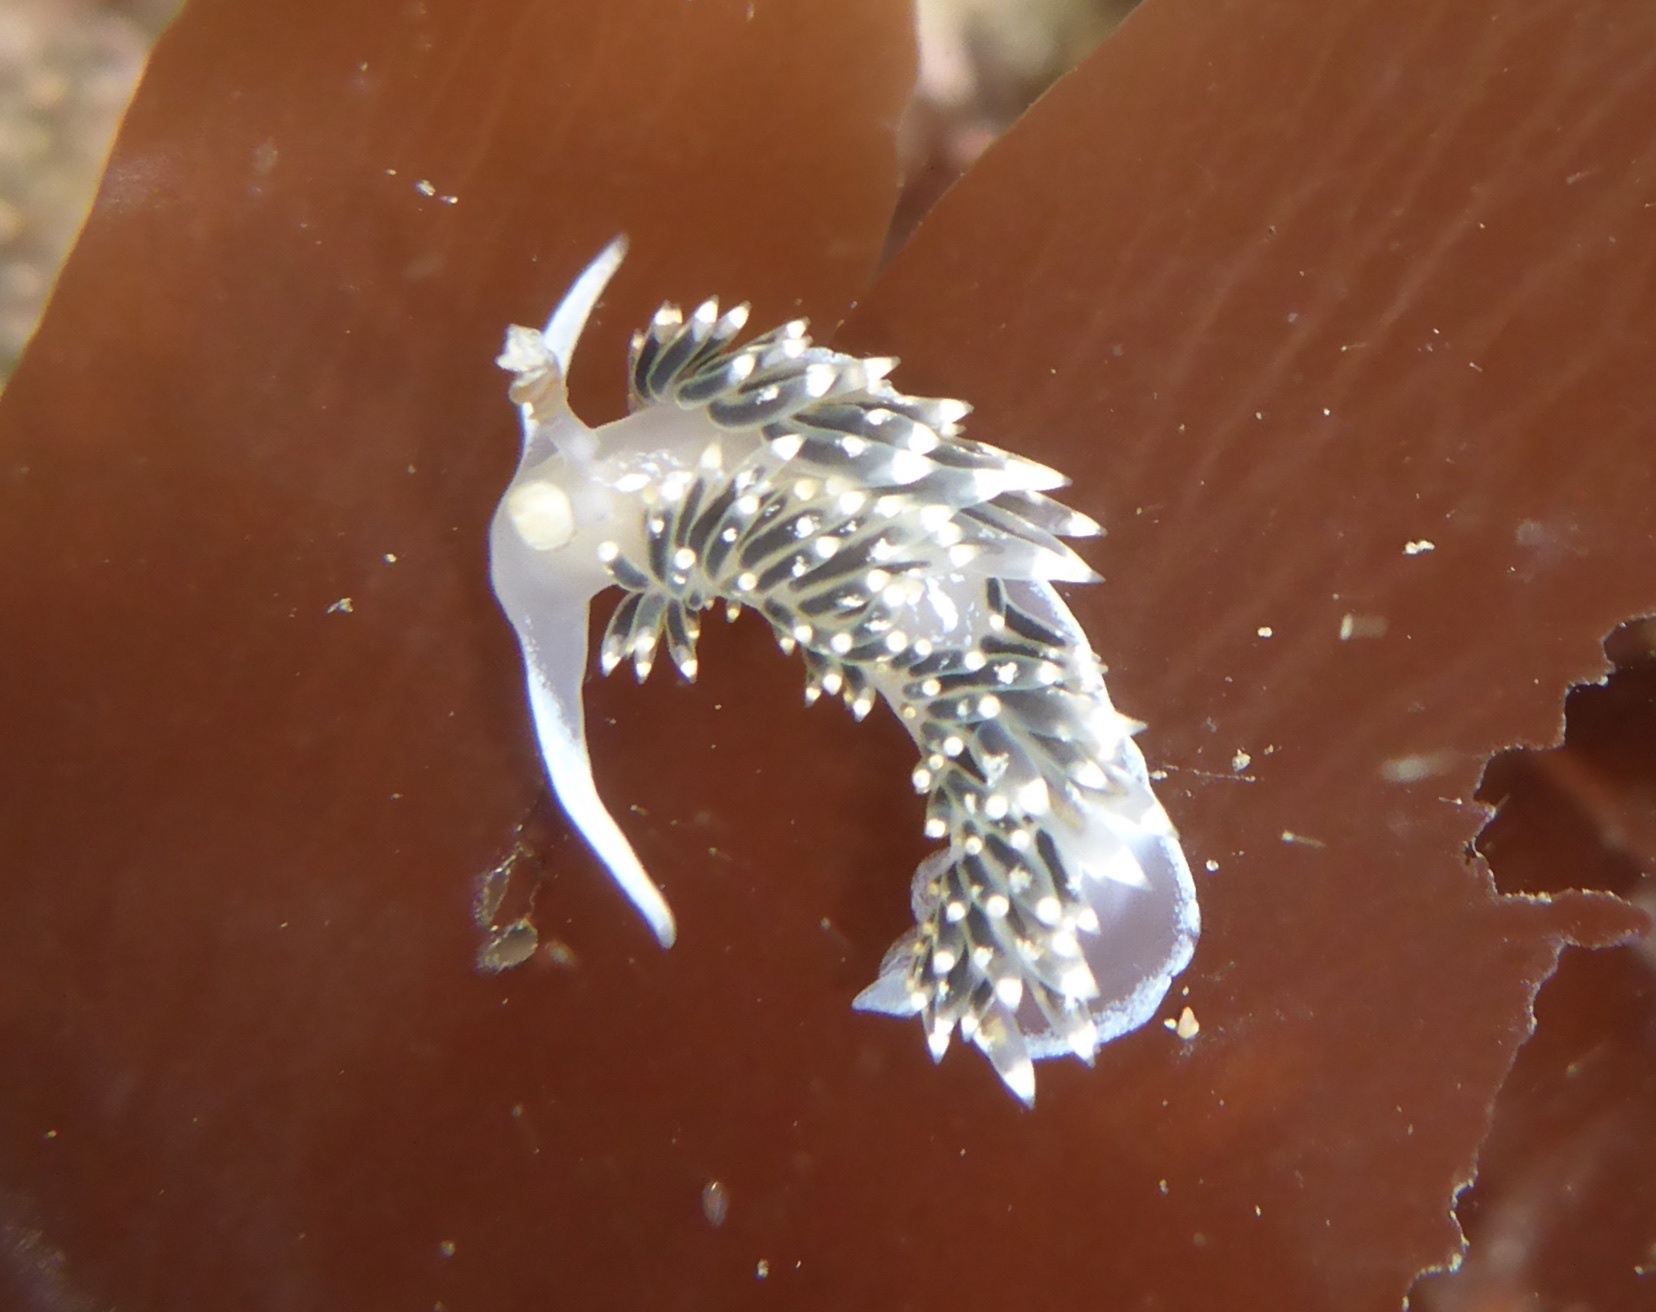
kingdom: Animalia
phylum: Mollusca
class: Gastropoda
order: Nudibranchia
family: Facelinidae
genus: Phidiana
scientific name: Phidiana hiltoni
